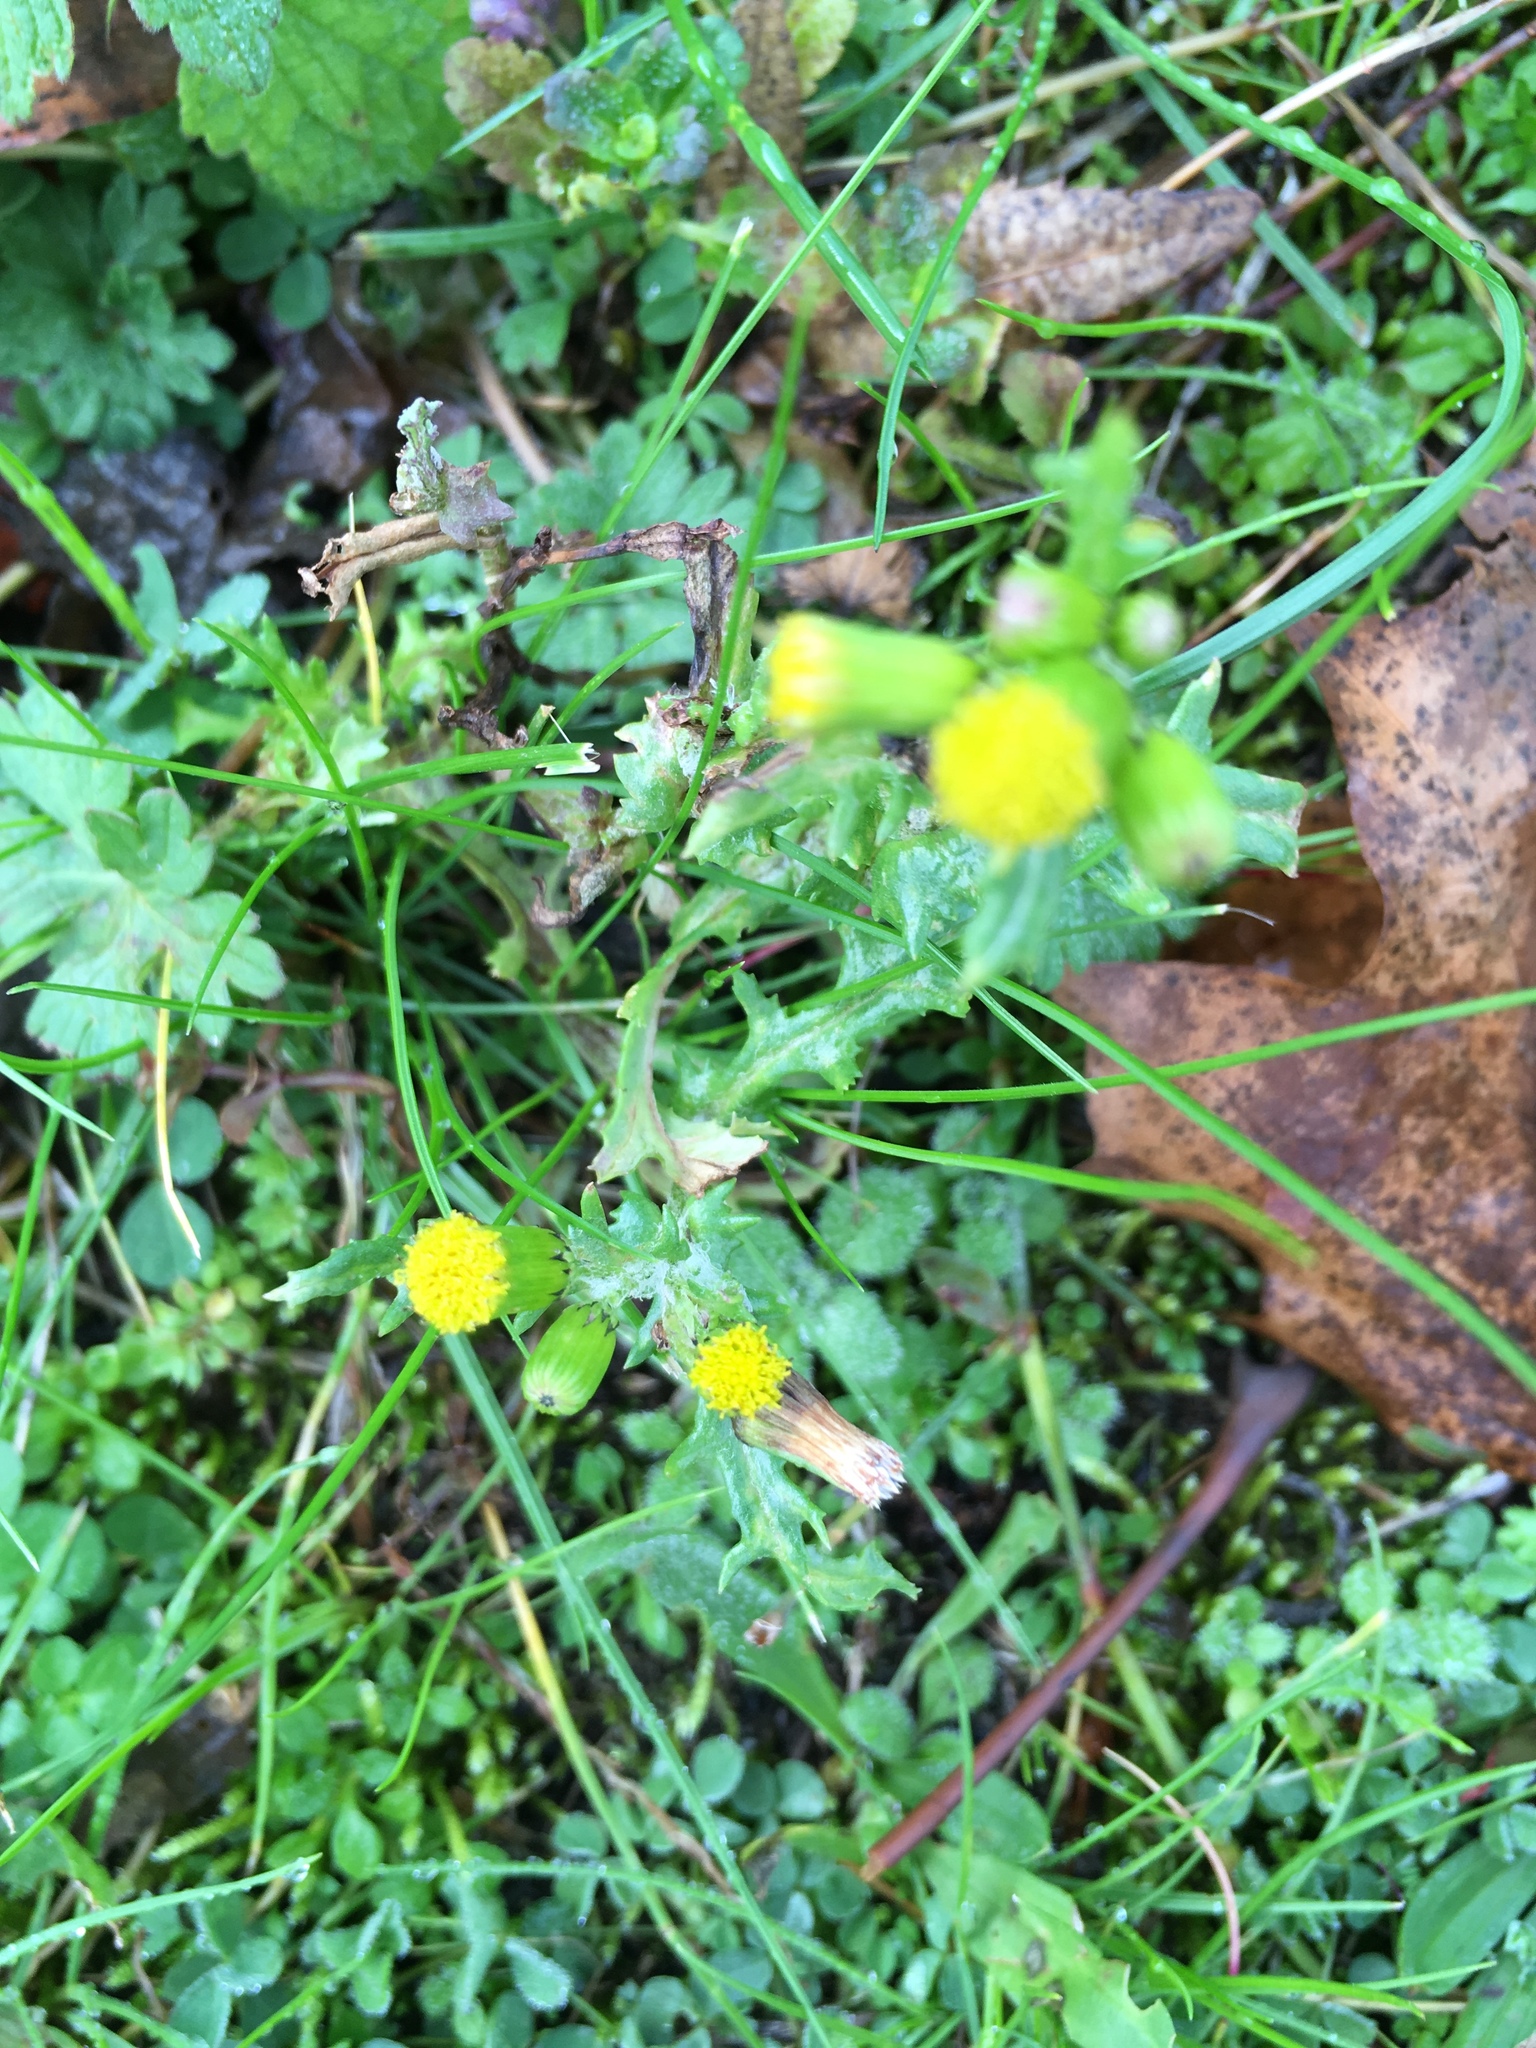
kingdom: Plantae
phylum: Tracheophyta
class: Magnoliopsida
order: Asterales
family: Asteraceae
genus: Senecio
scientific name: Senecio vulgaris
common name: Old-man-in-the-spring
